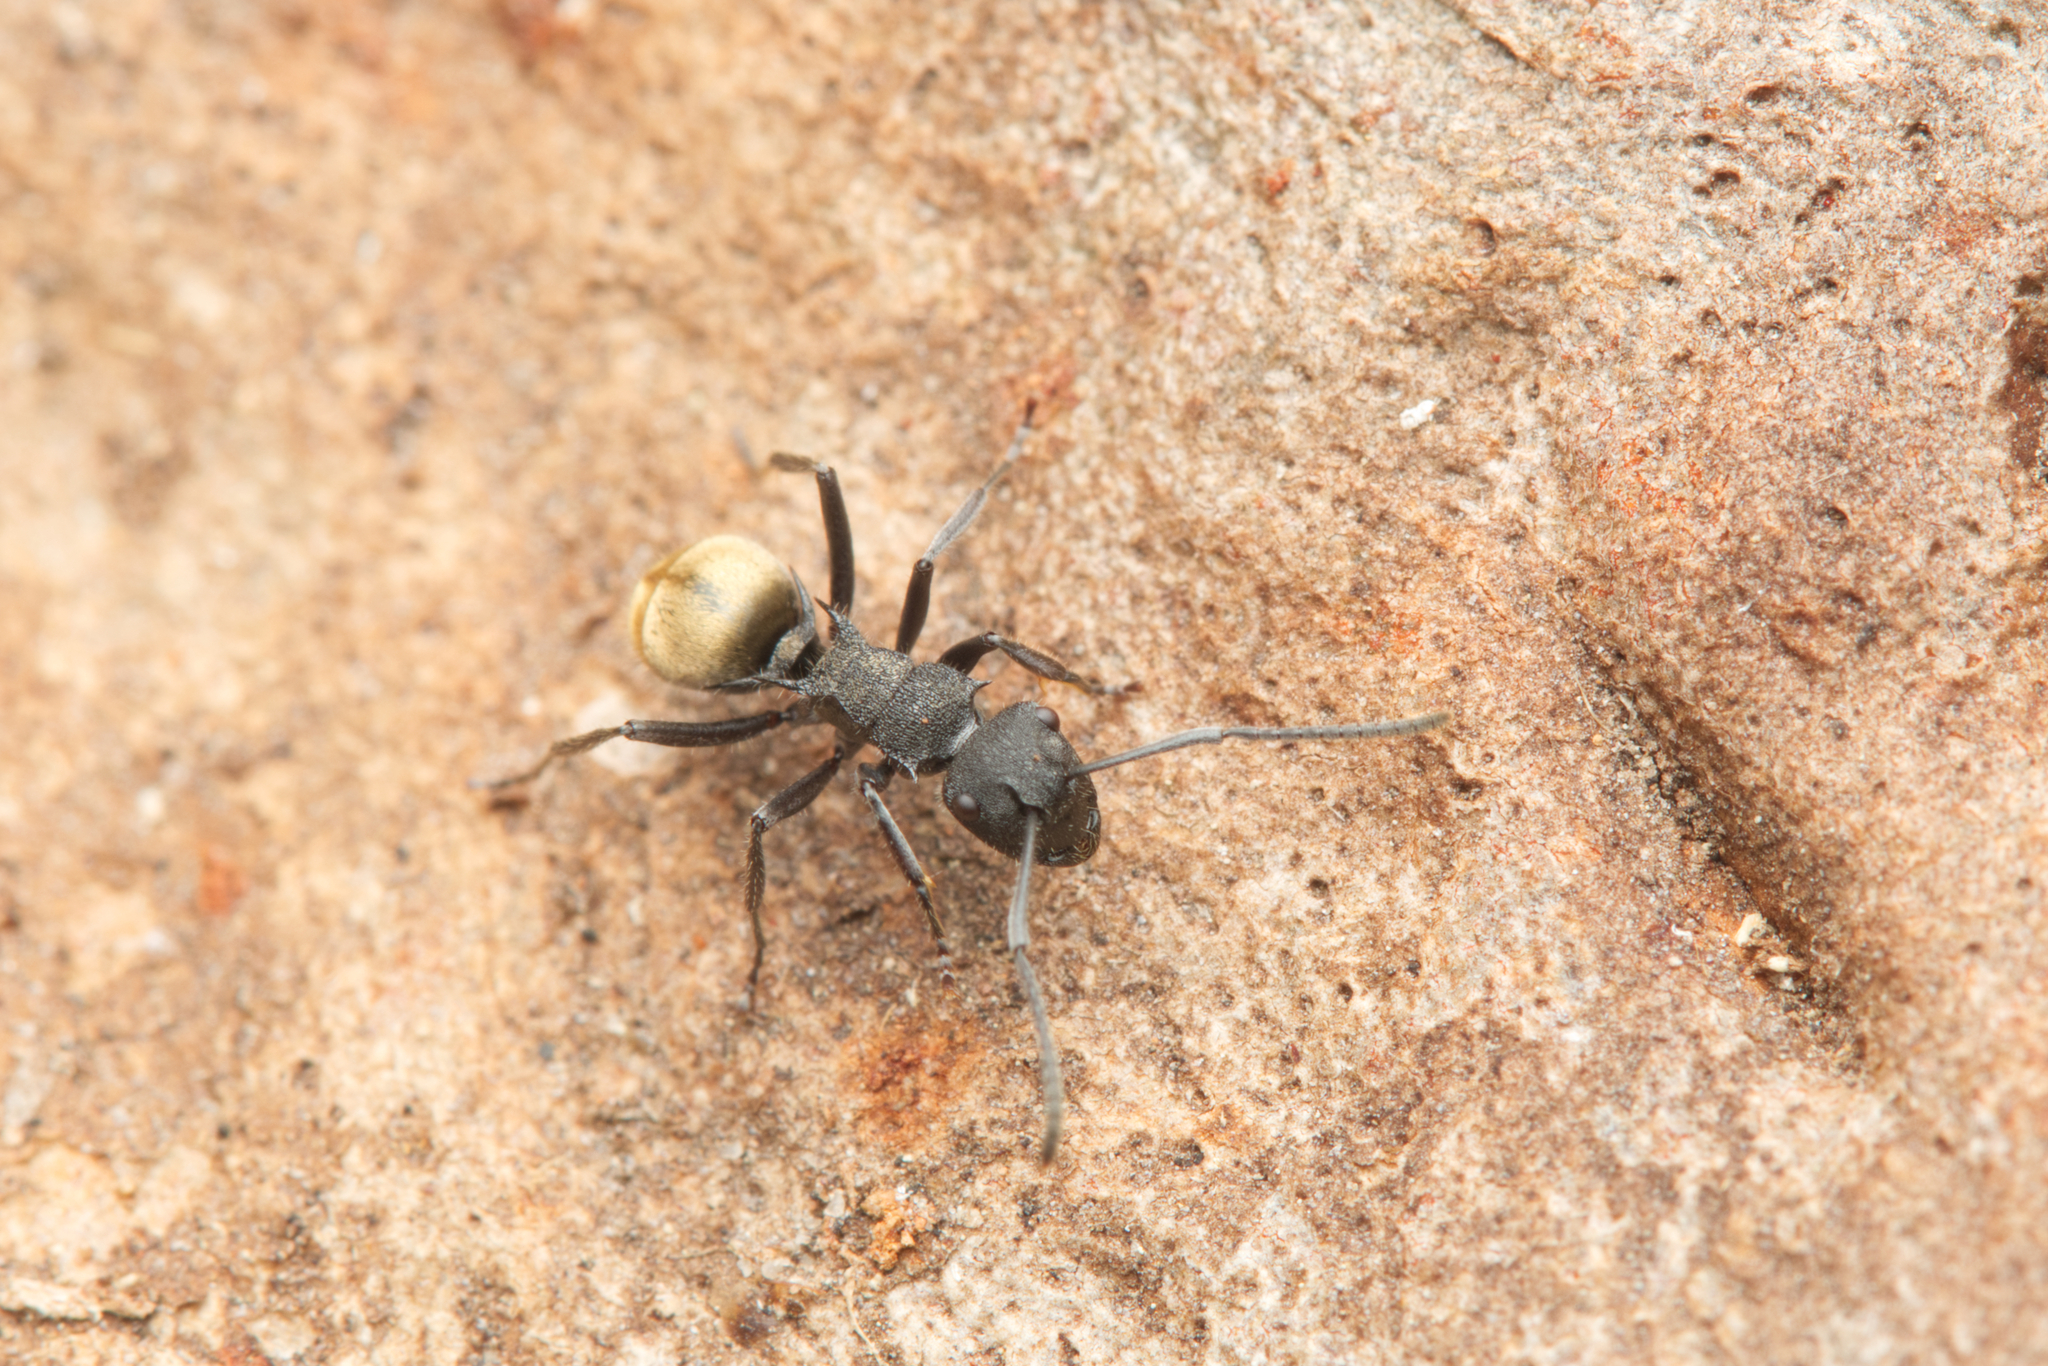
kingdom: Animalia
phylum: Arthropoda
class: Insecta
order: Hymenoptera
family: Formicidae
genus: Polyrhachis
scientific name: Polyrhachis erato
